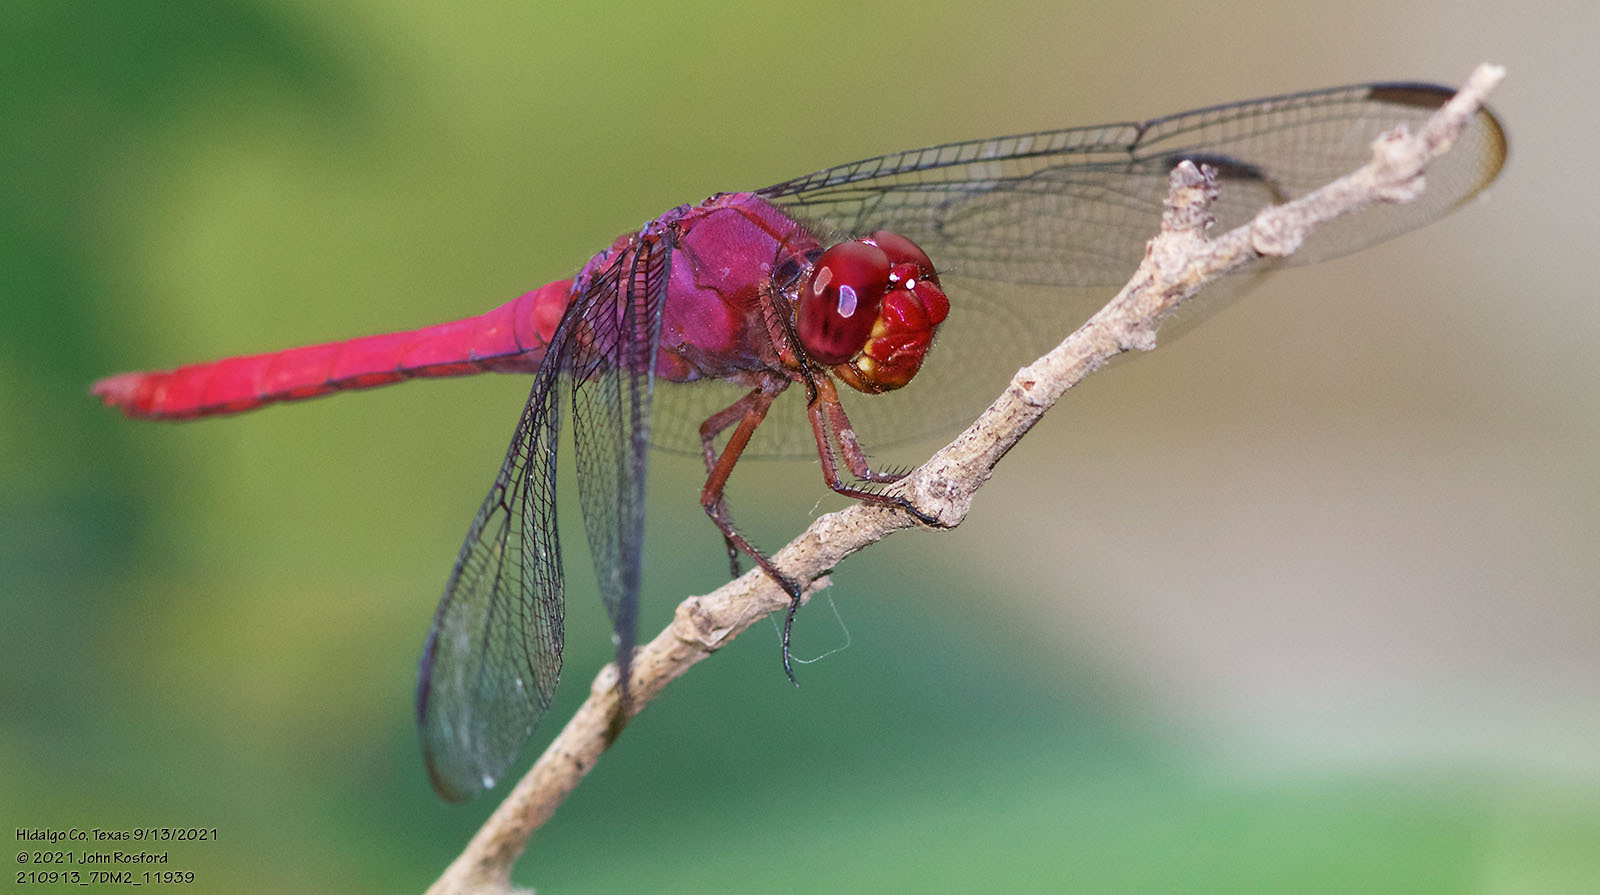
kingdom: Animalia
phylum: Arthropoda
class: Insecta
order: Odonata
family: Libellulidae
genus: Orthemis
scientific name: Orthemis discolor
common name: Carmine skimmer
